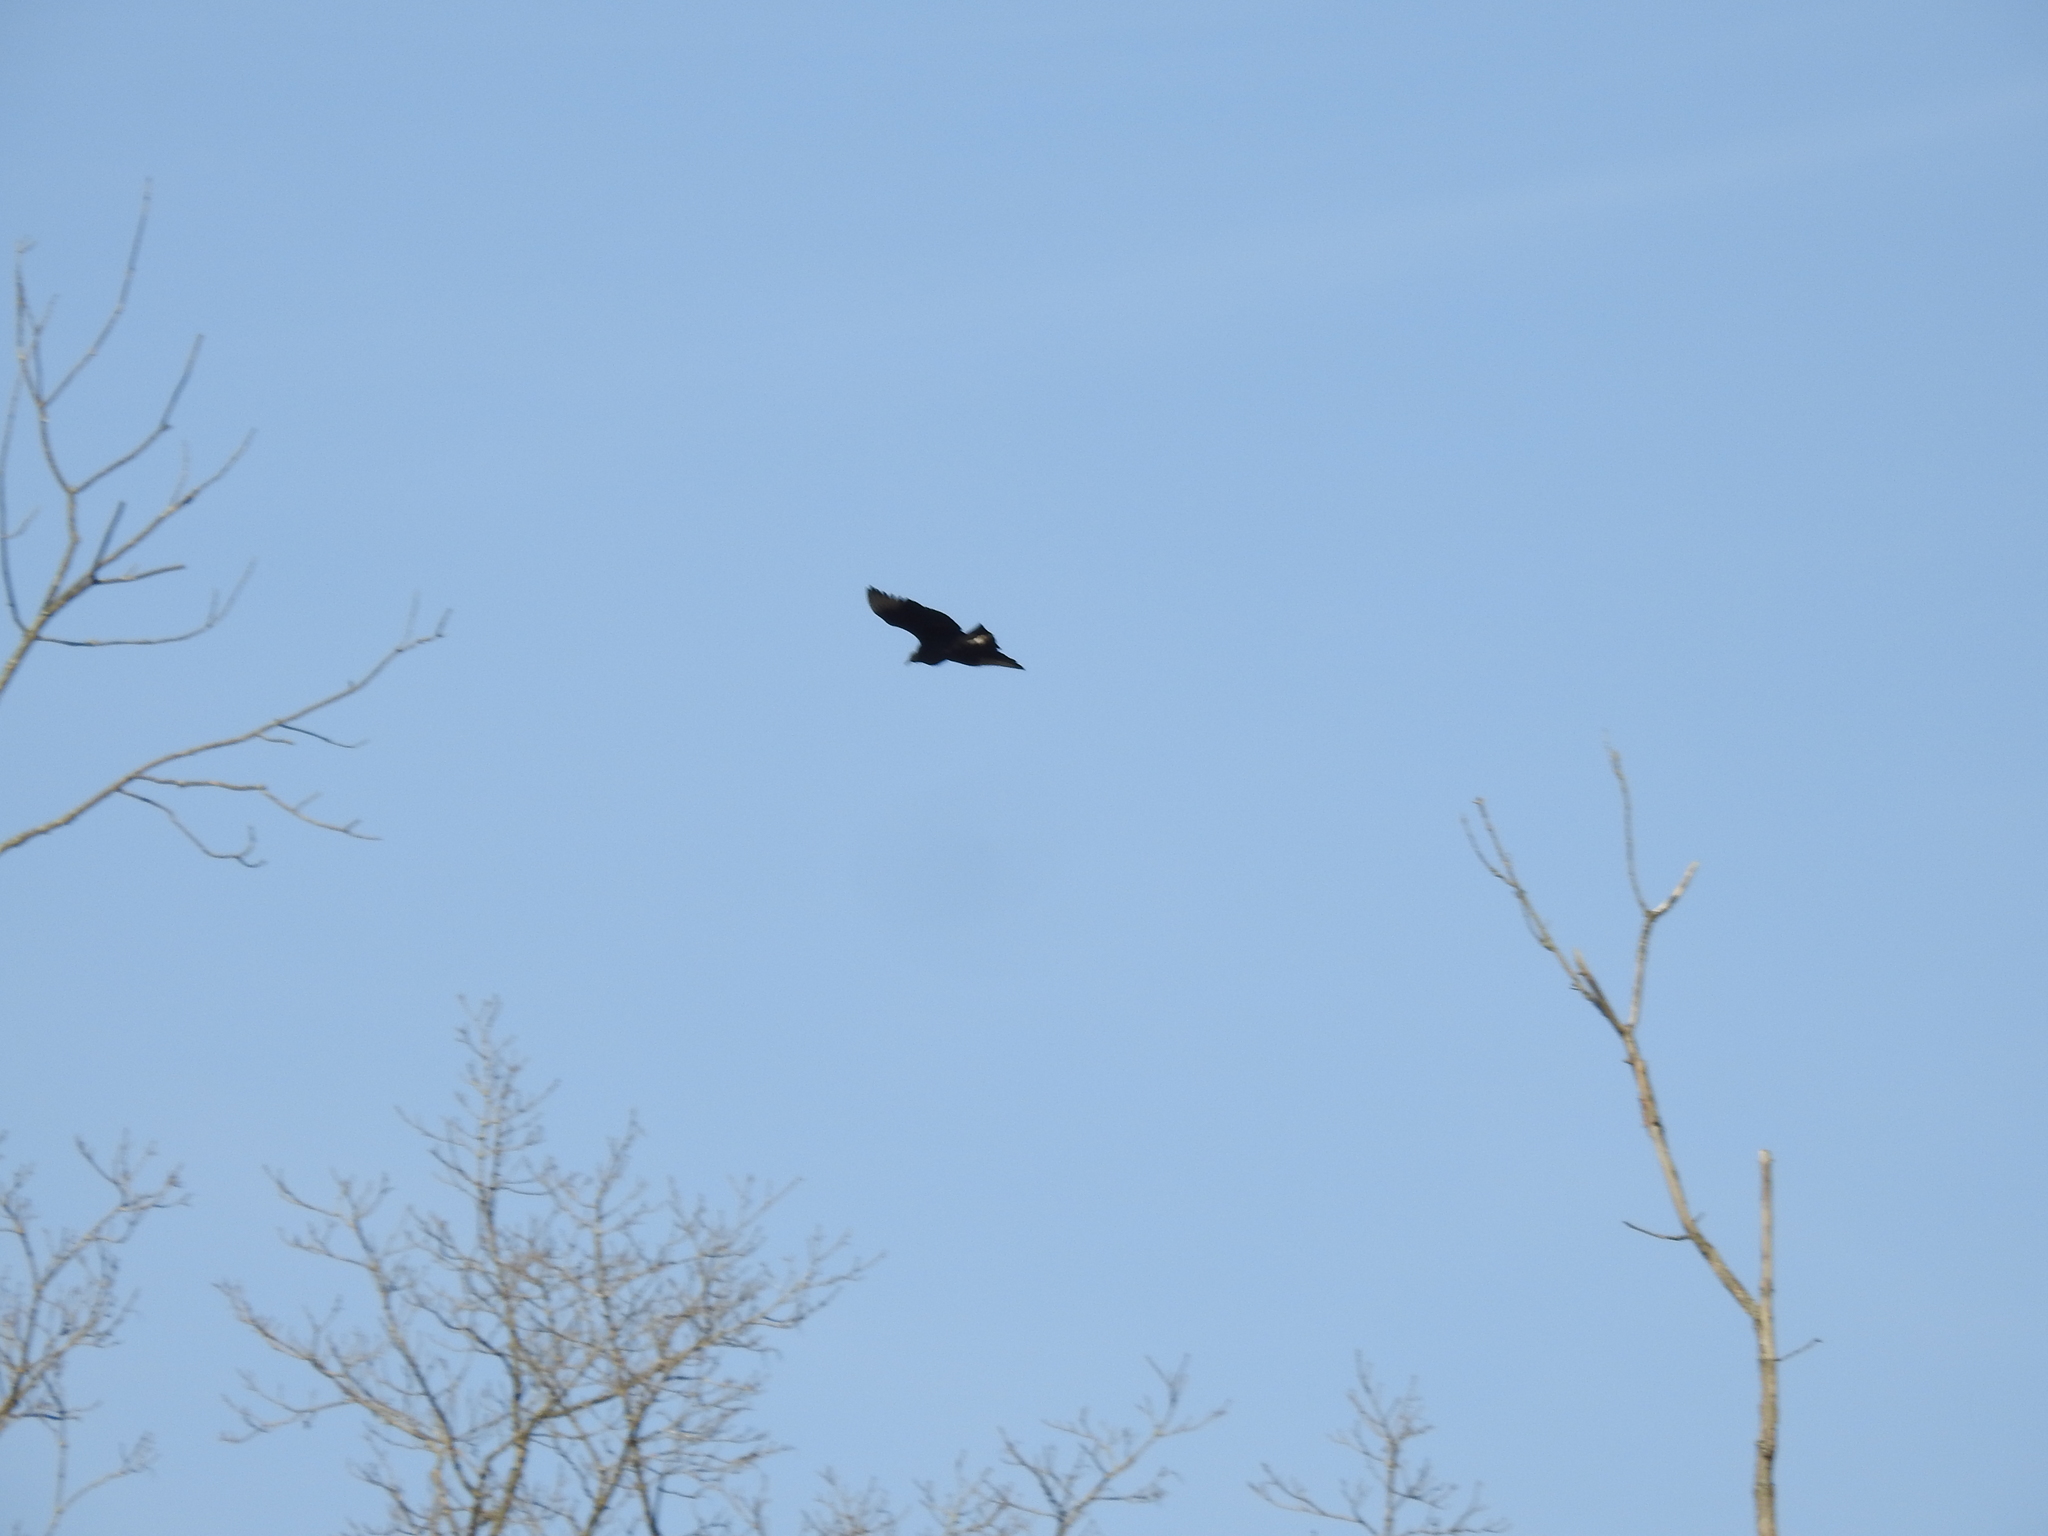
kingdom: Animalia
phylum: Chordata
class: Aves
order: Accipitriformes
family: Cathartidae
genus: Coragyps
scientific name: Coragyps atratus
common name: Black vulture
